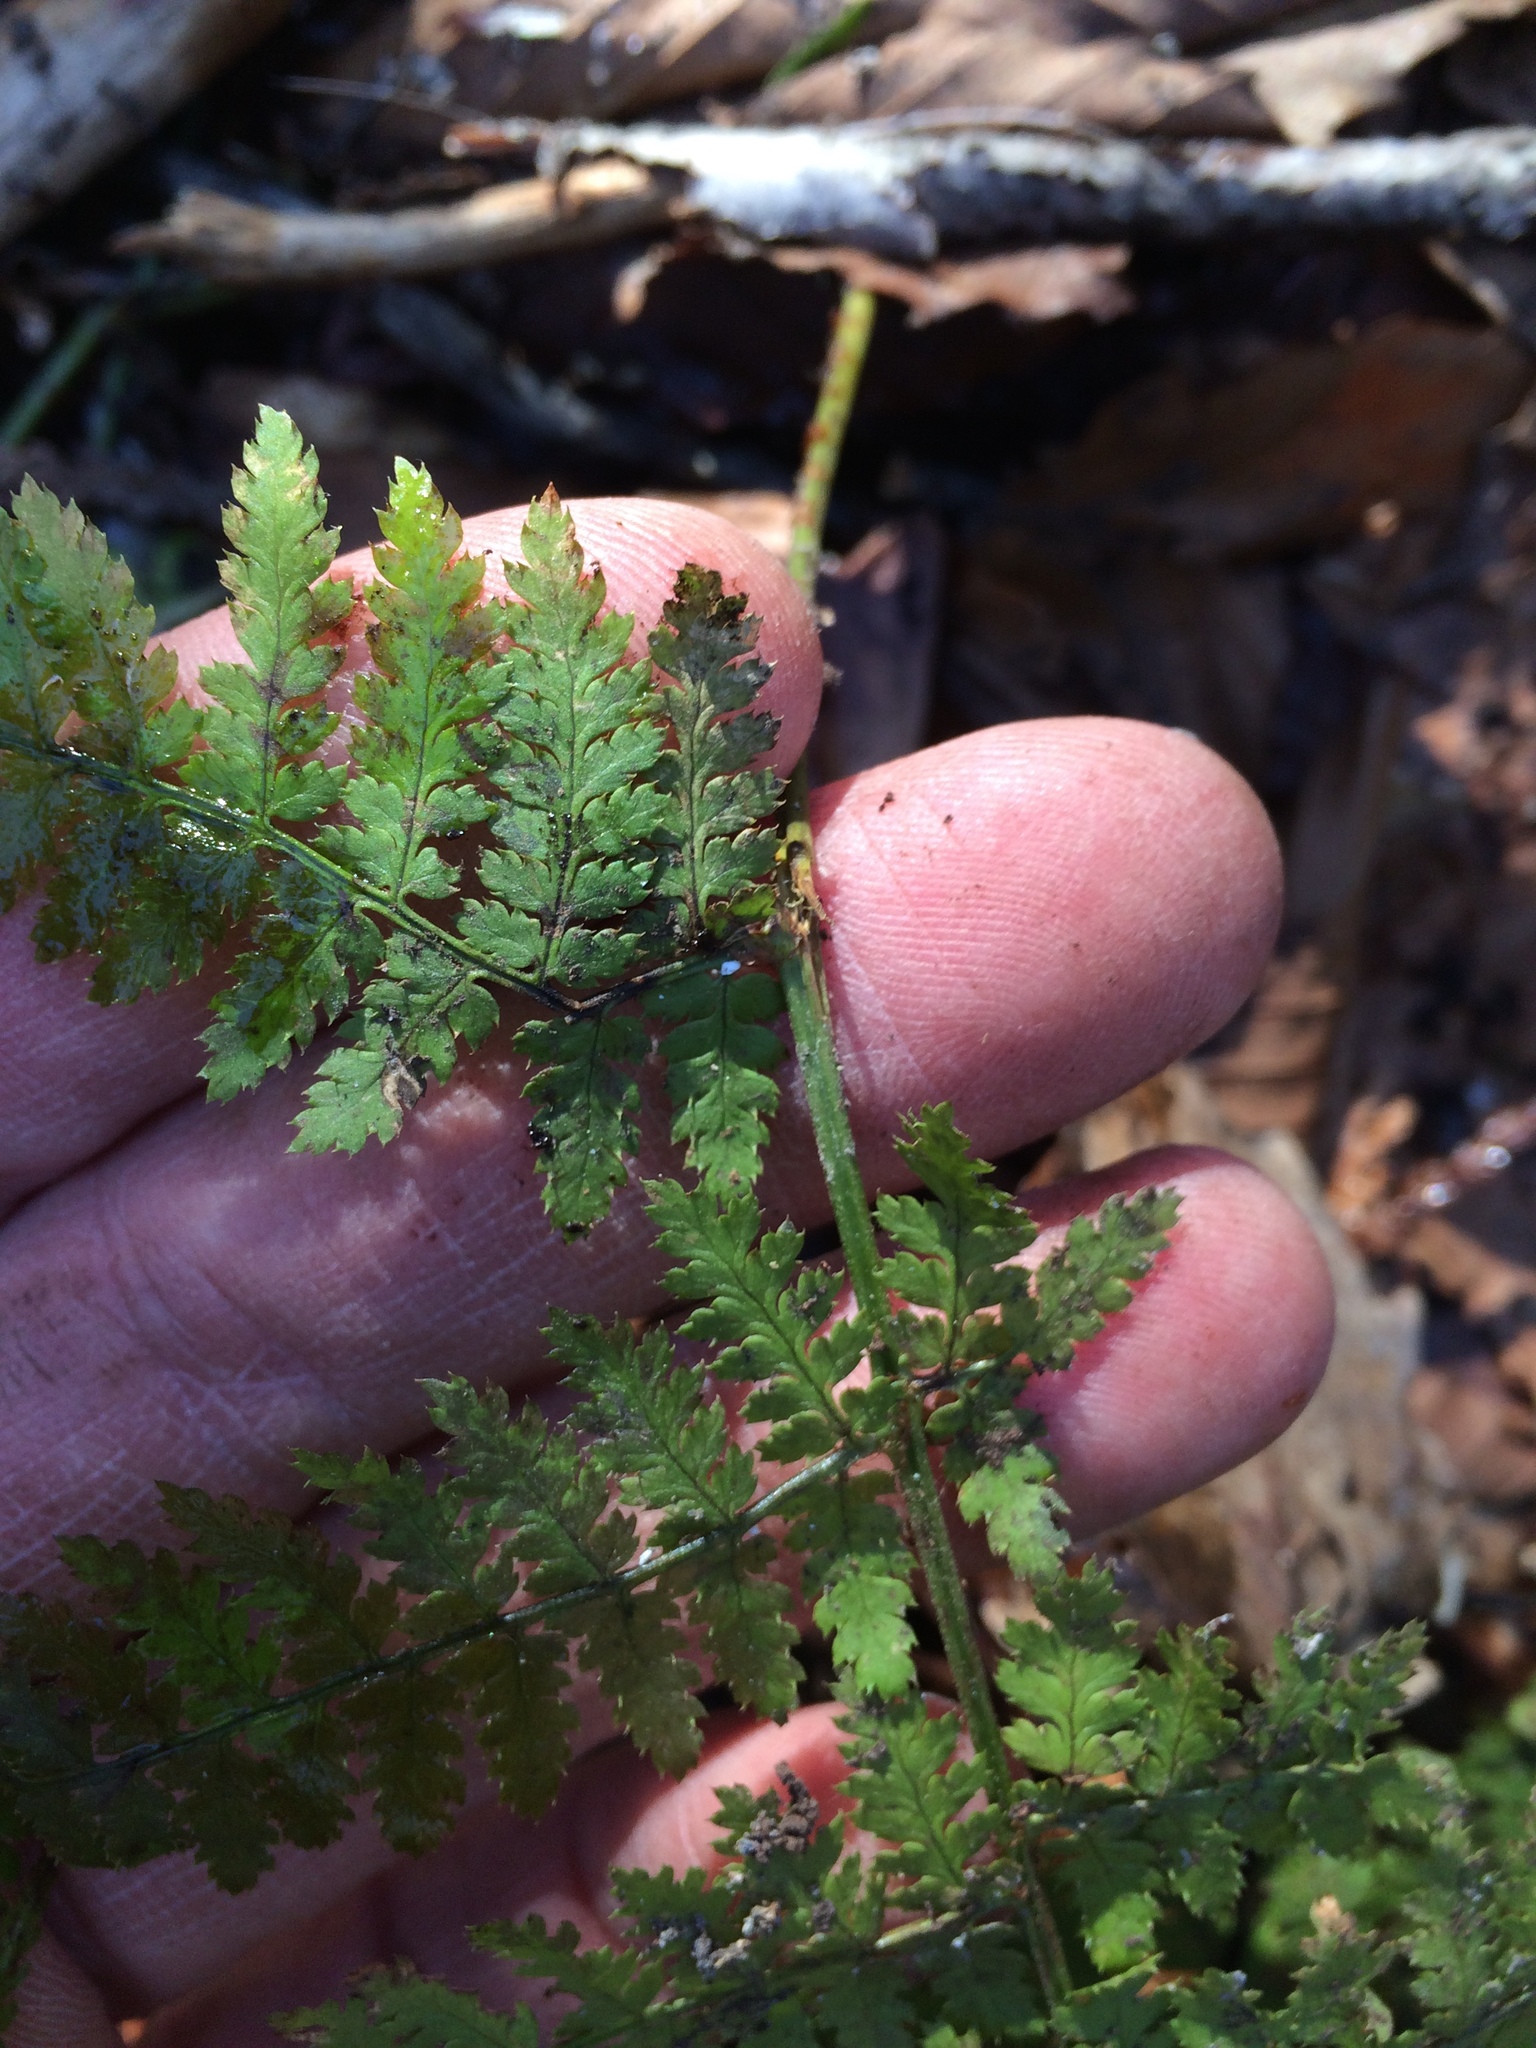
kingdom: Plantae
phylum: Tracheophyta
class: Polypodiopsida
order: Polypodiales
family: Dryopteridaceae
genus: Dryopteris
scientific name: Dryopteris intermedia
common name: Evergreen wood fern
